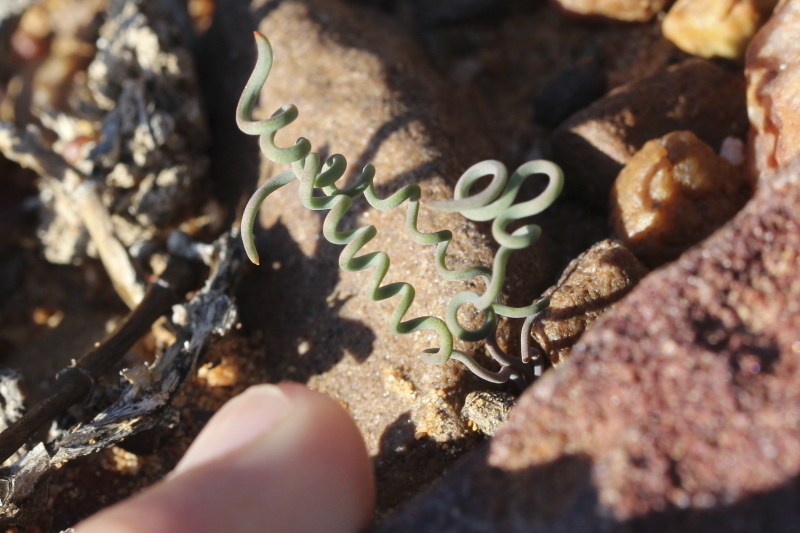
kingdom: Plantae
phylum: Tracheophyta
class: Liliopsida
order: Asparagales
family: Asphodelaceae
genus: Bulbine
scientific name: Bulbine torta
